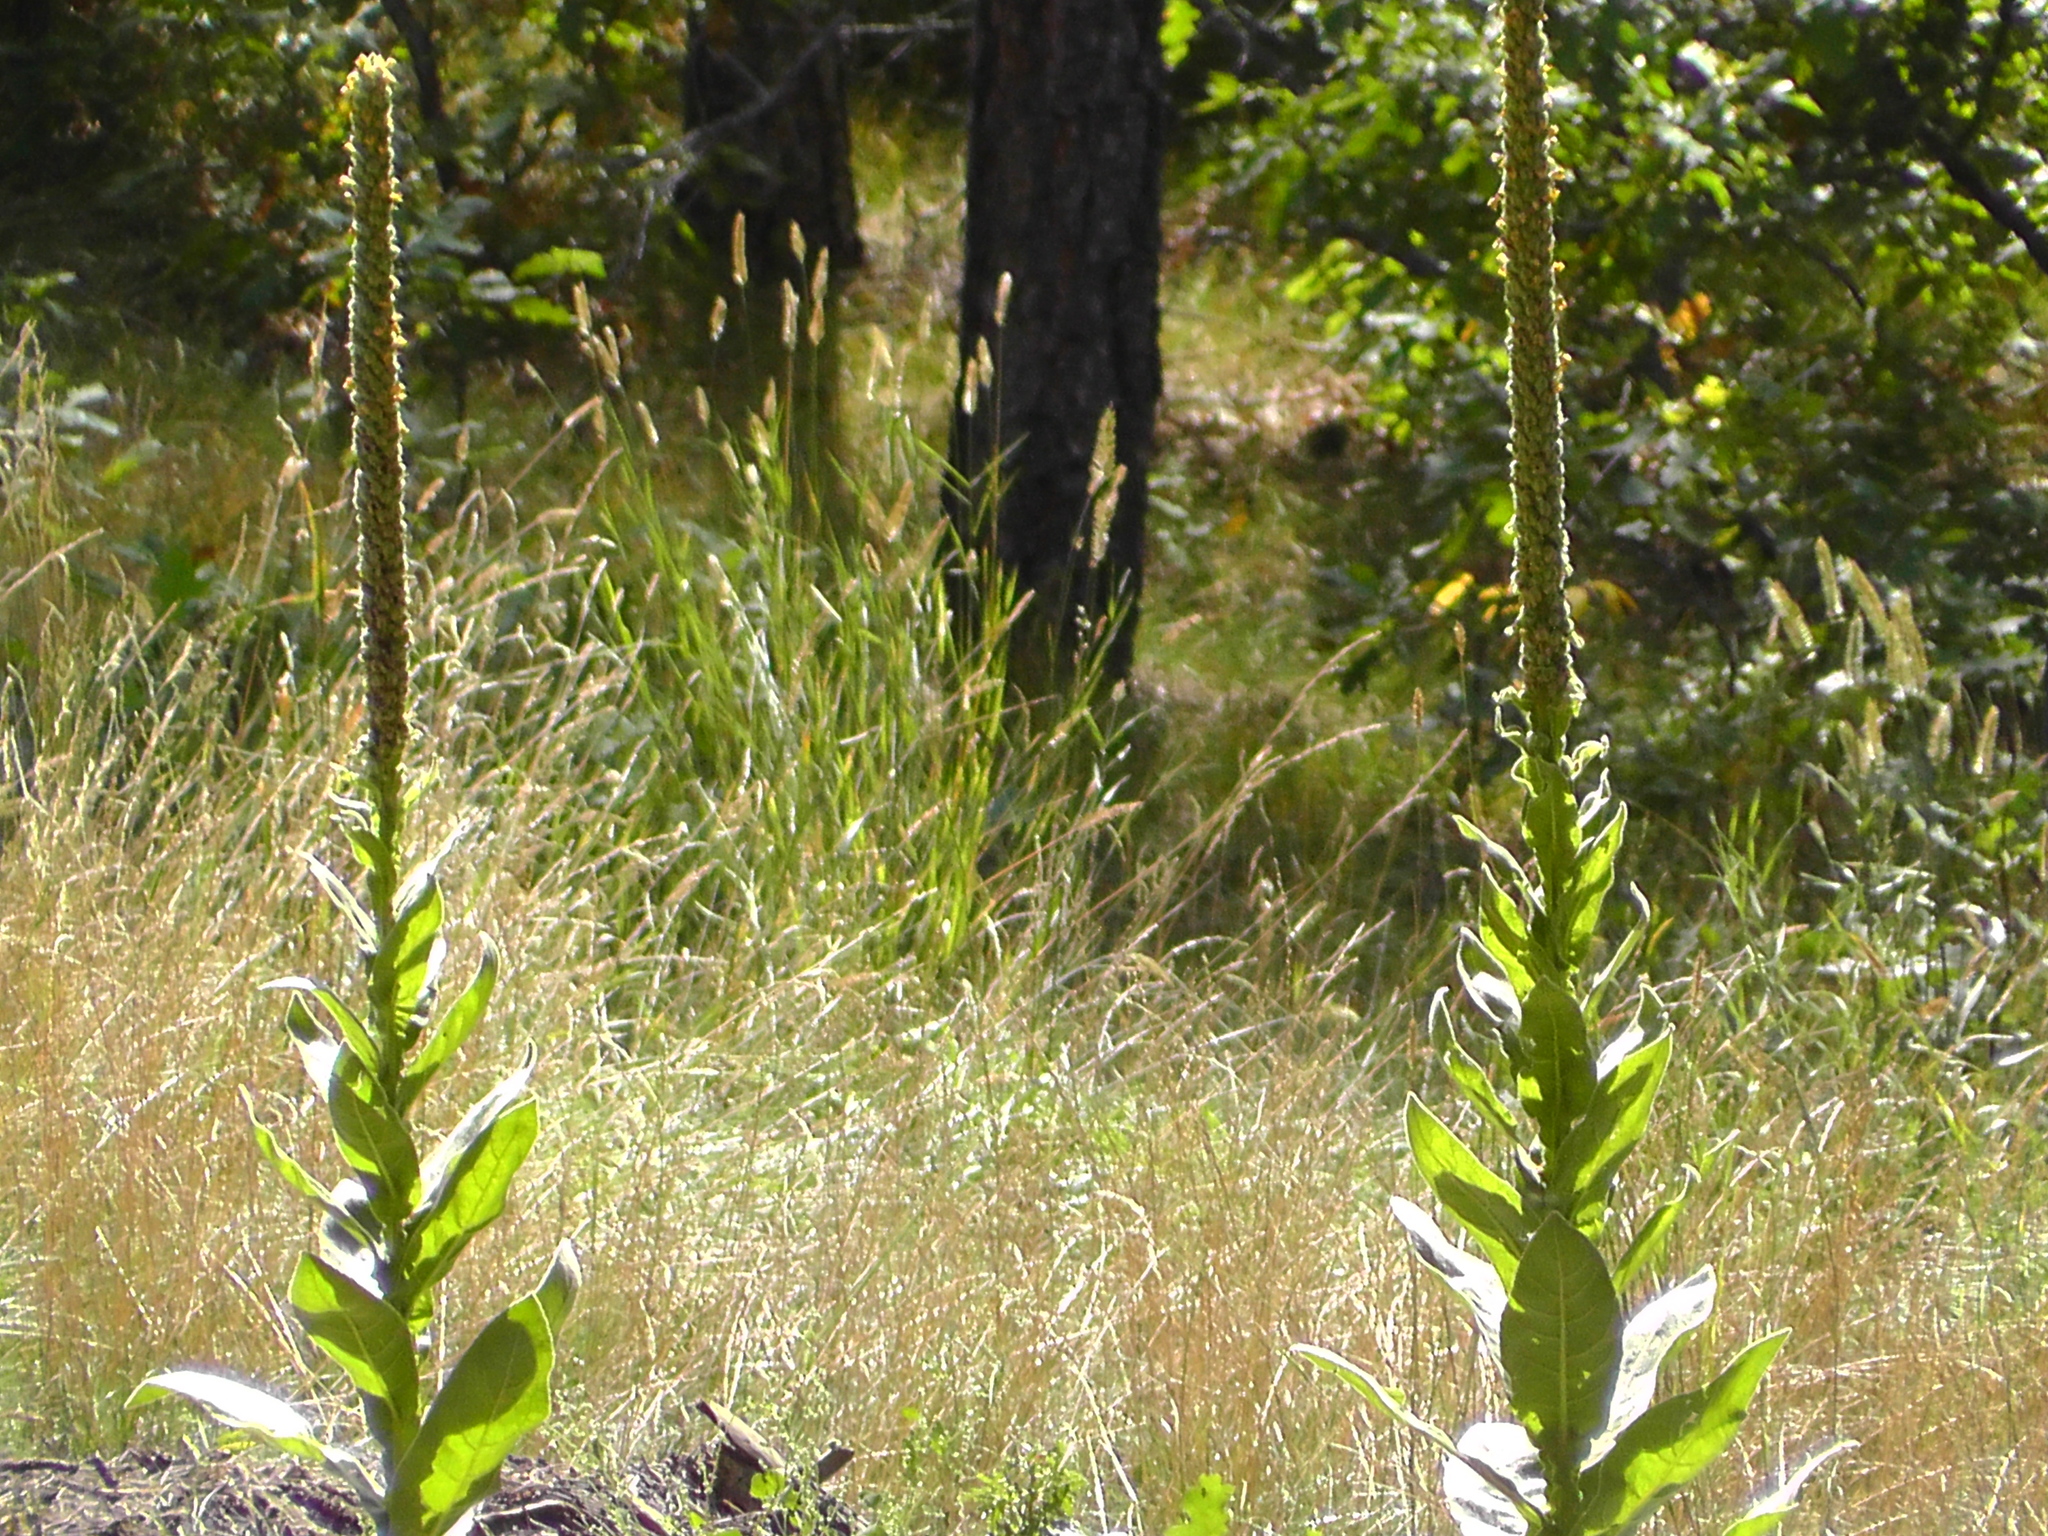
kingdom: Plantae
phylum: Tracheophyta
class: Magnoliopsida
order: Lamiales
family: Scrophulariaceae
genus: Verbascum
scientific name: Verbascum thapsus
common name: Common mullein
